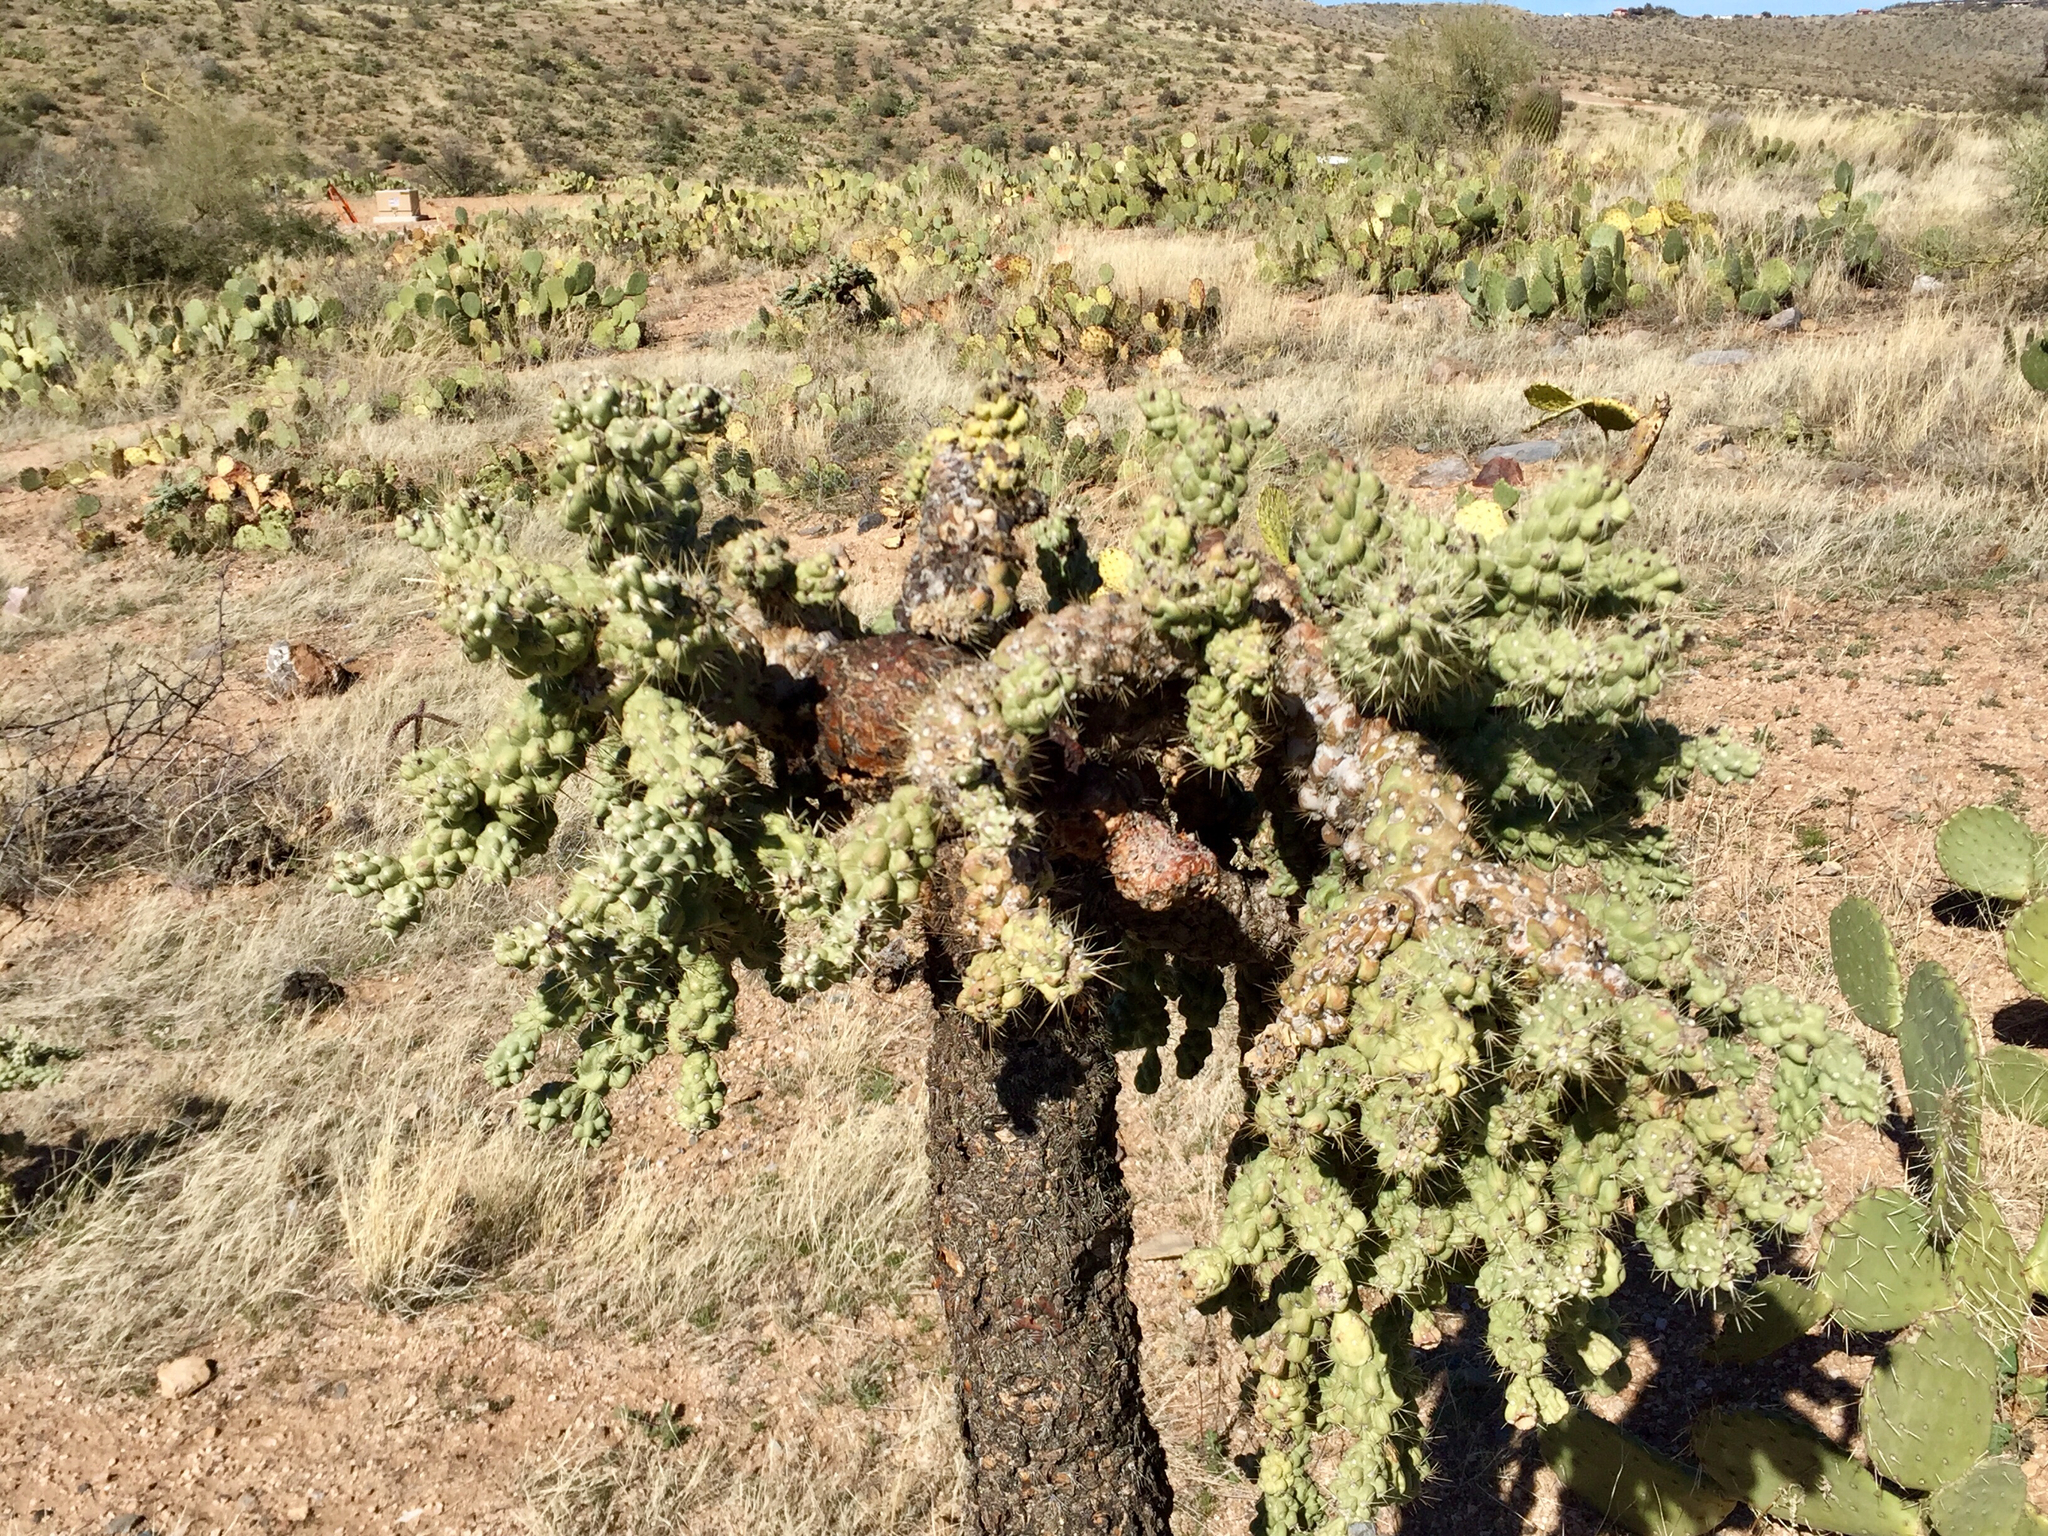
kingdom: Plantae
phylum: Tracheophyta
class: Magnoliopsida
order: Caryophyllales
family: Cactaceae
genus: Cylindropuntia
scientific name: Cylindropuntia fulgida
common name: Jumping cholla
